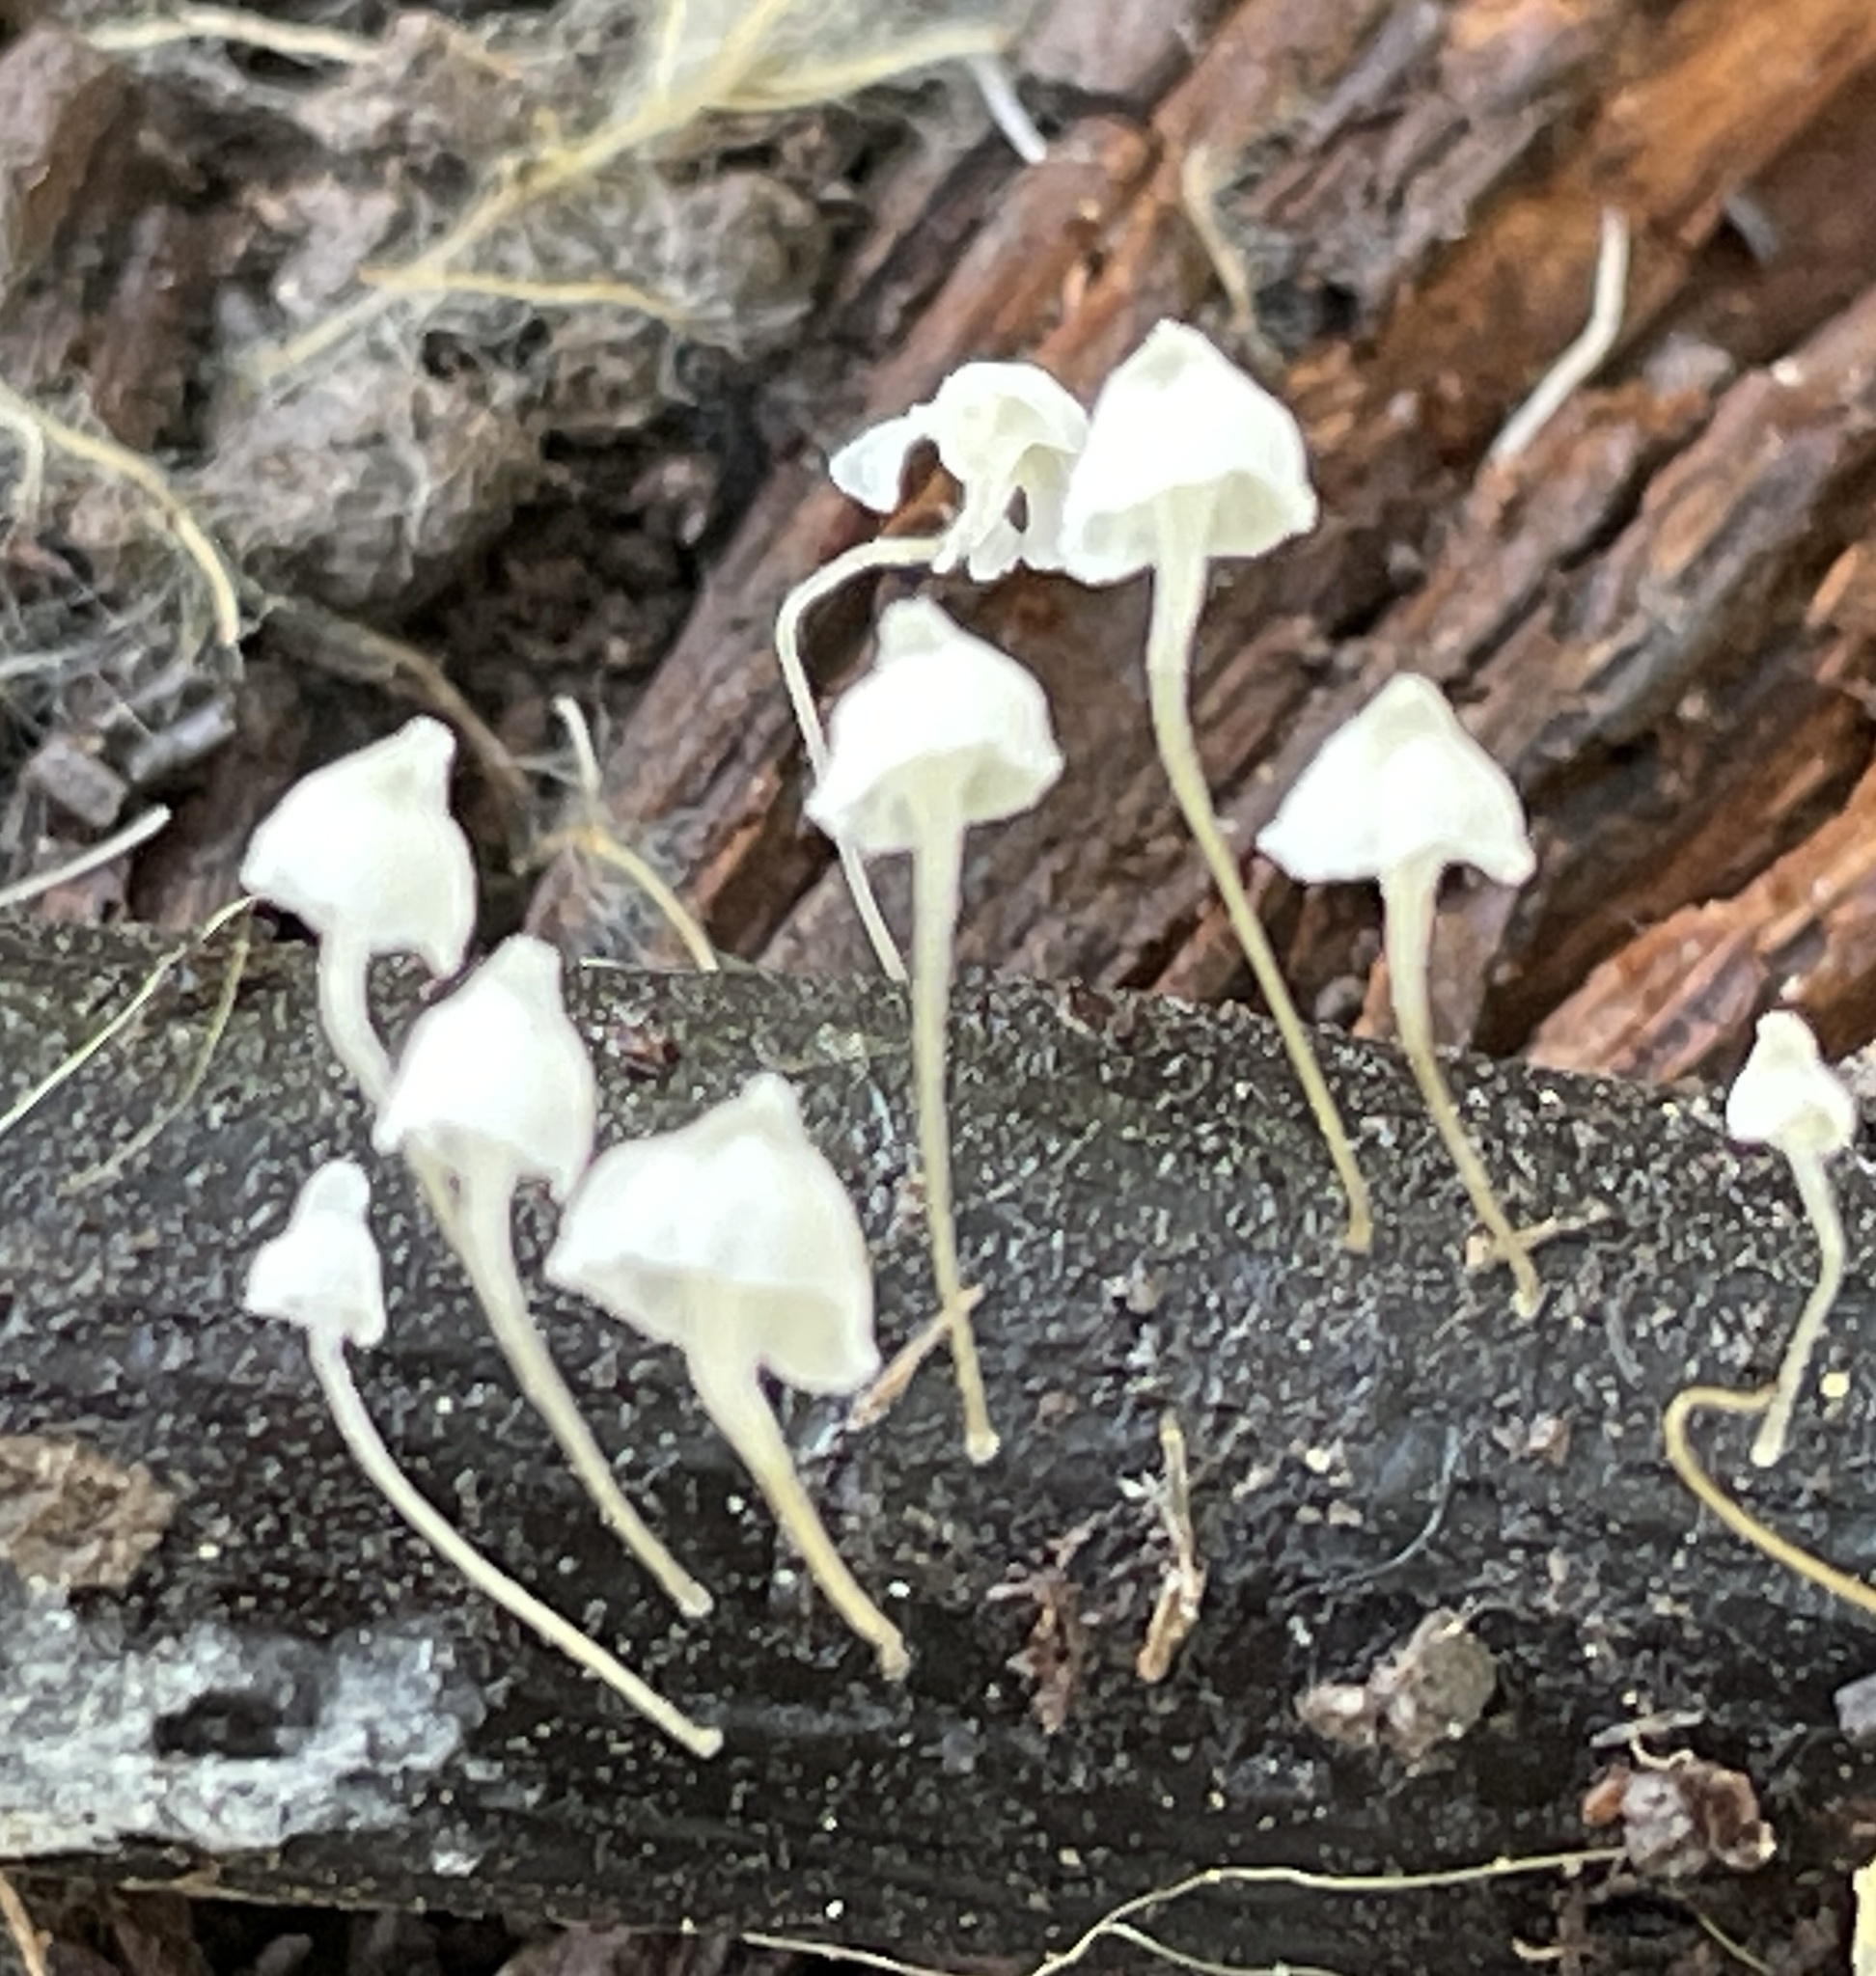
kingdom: Fungi
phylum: Basidiomycota
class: Agaricomycetes
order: Agaricales
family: Porotheleaceae
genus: Phloeomana
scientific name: Phloeomana speirea
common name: Bark bonnet
